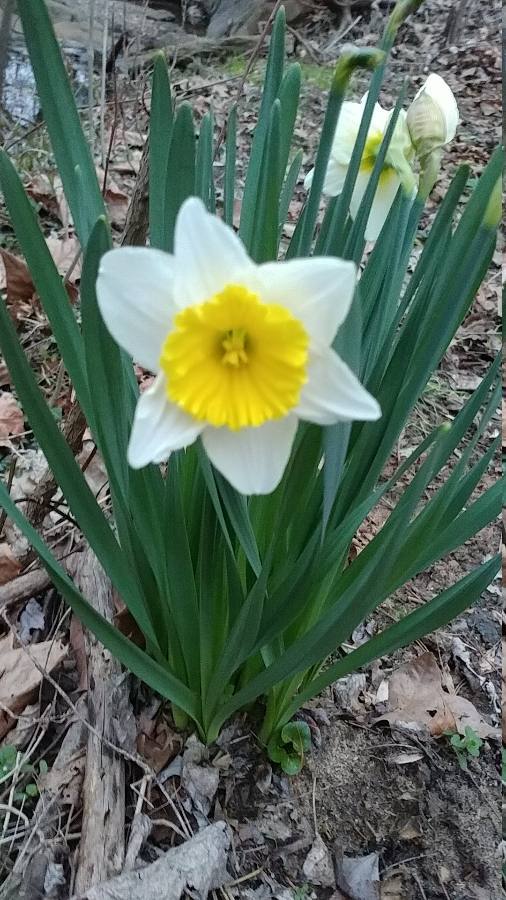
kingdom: Plantae
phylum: Tracheophyta
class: Liliopsida
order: Asparagales
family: Amaryllidaceae
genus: Narcissus
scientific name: Narcissus incomparabilis
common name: Nonesuch daffodil
